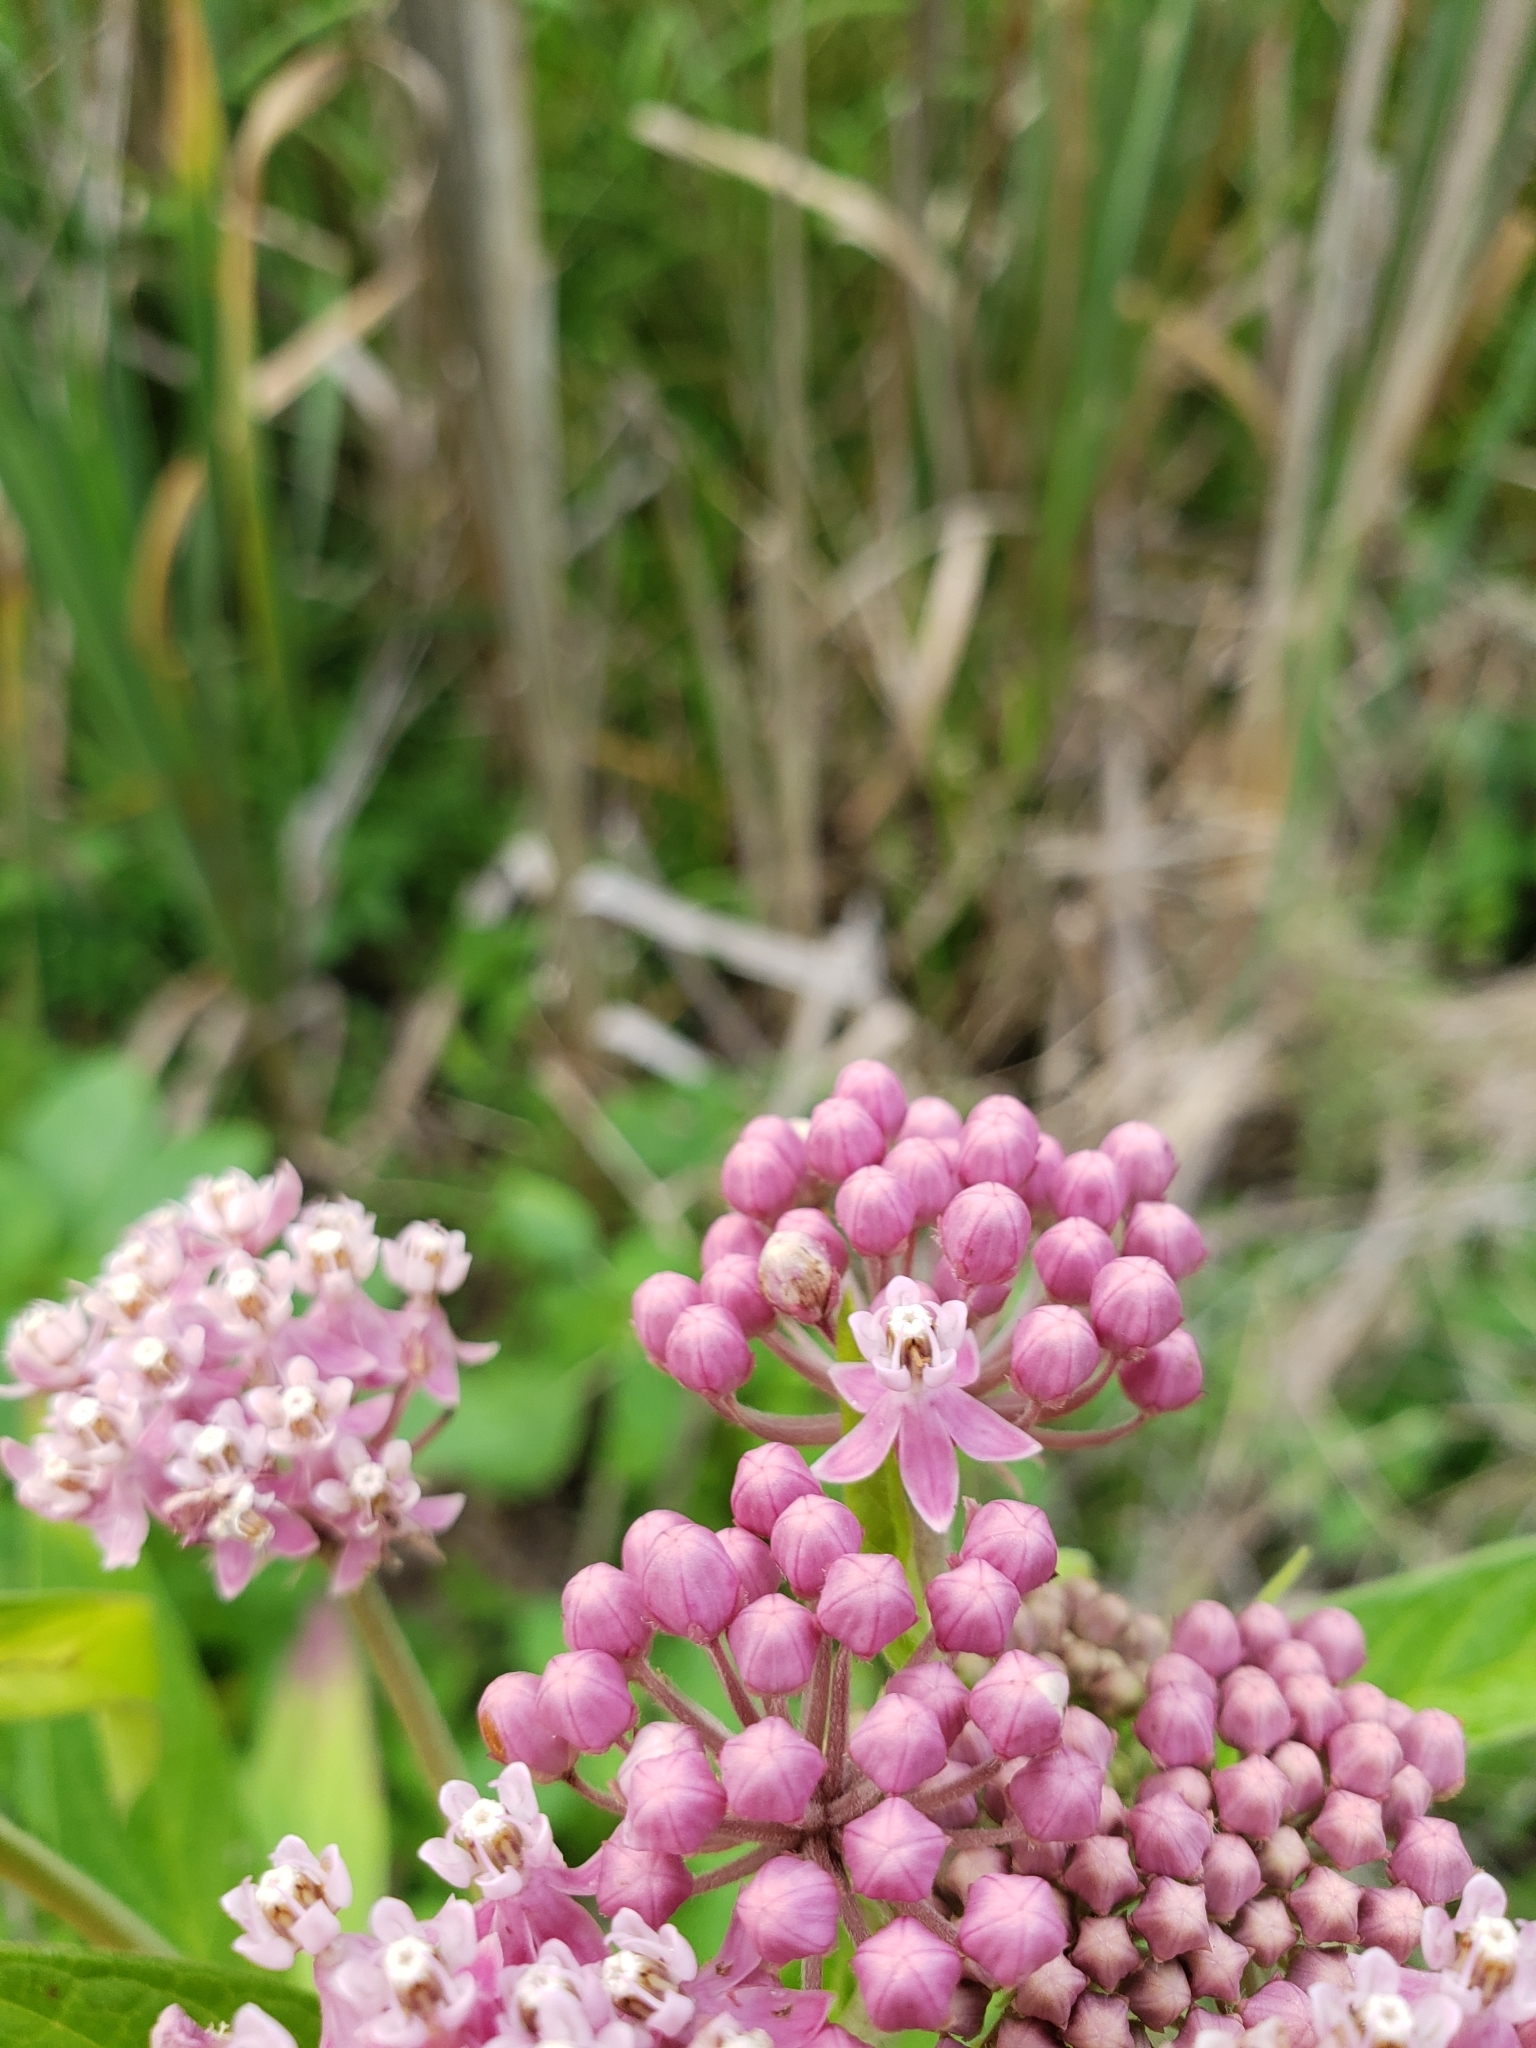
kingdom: Plantae
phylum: Tracheophyta
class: Magnoliopsida
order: Gentianales
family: Apocynaceae
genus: Asclepias
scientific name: Asclepias incarnata
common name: Swamp milkweed
